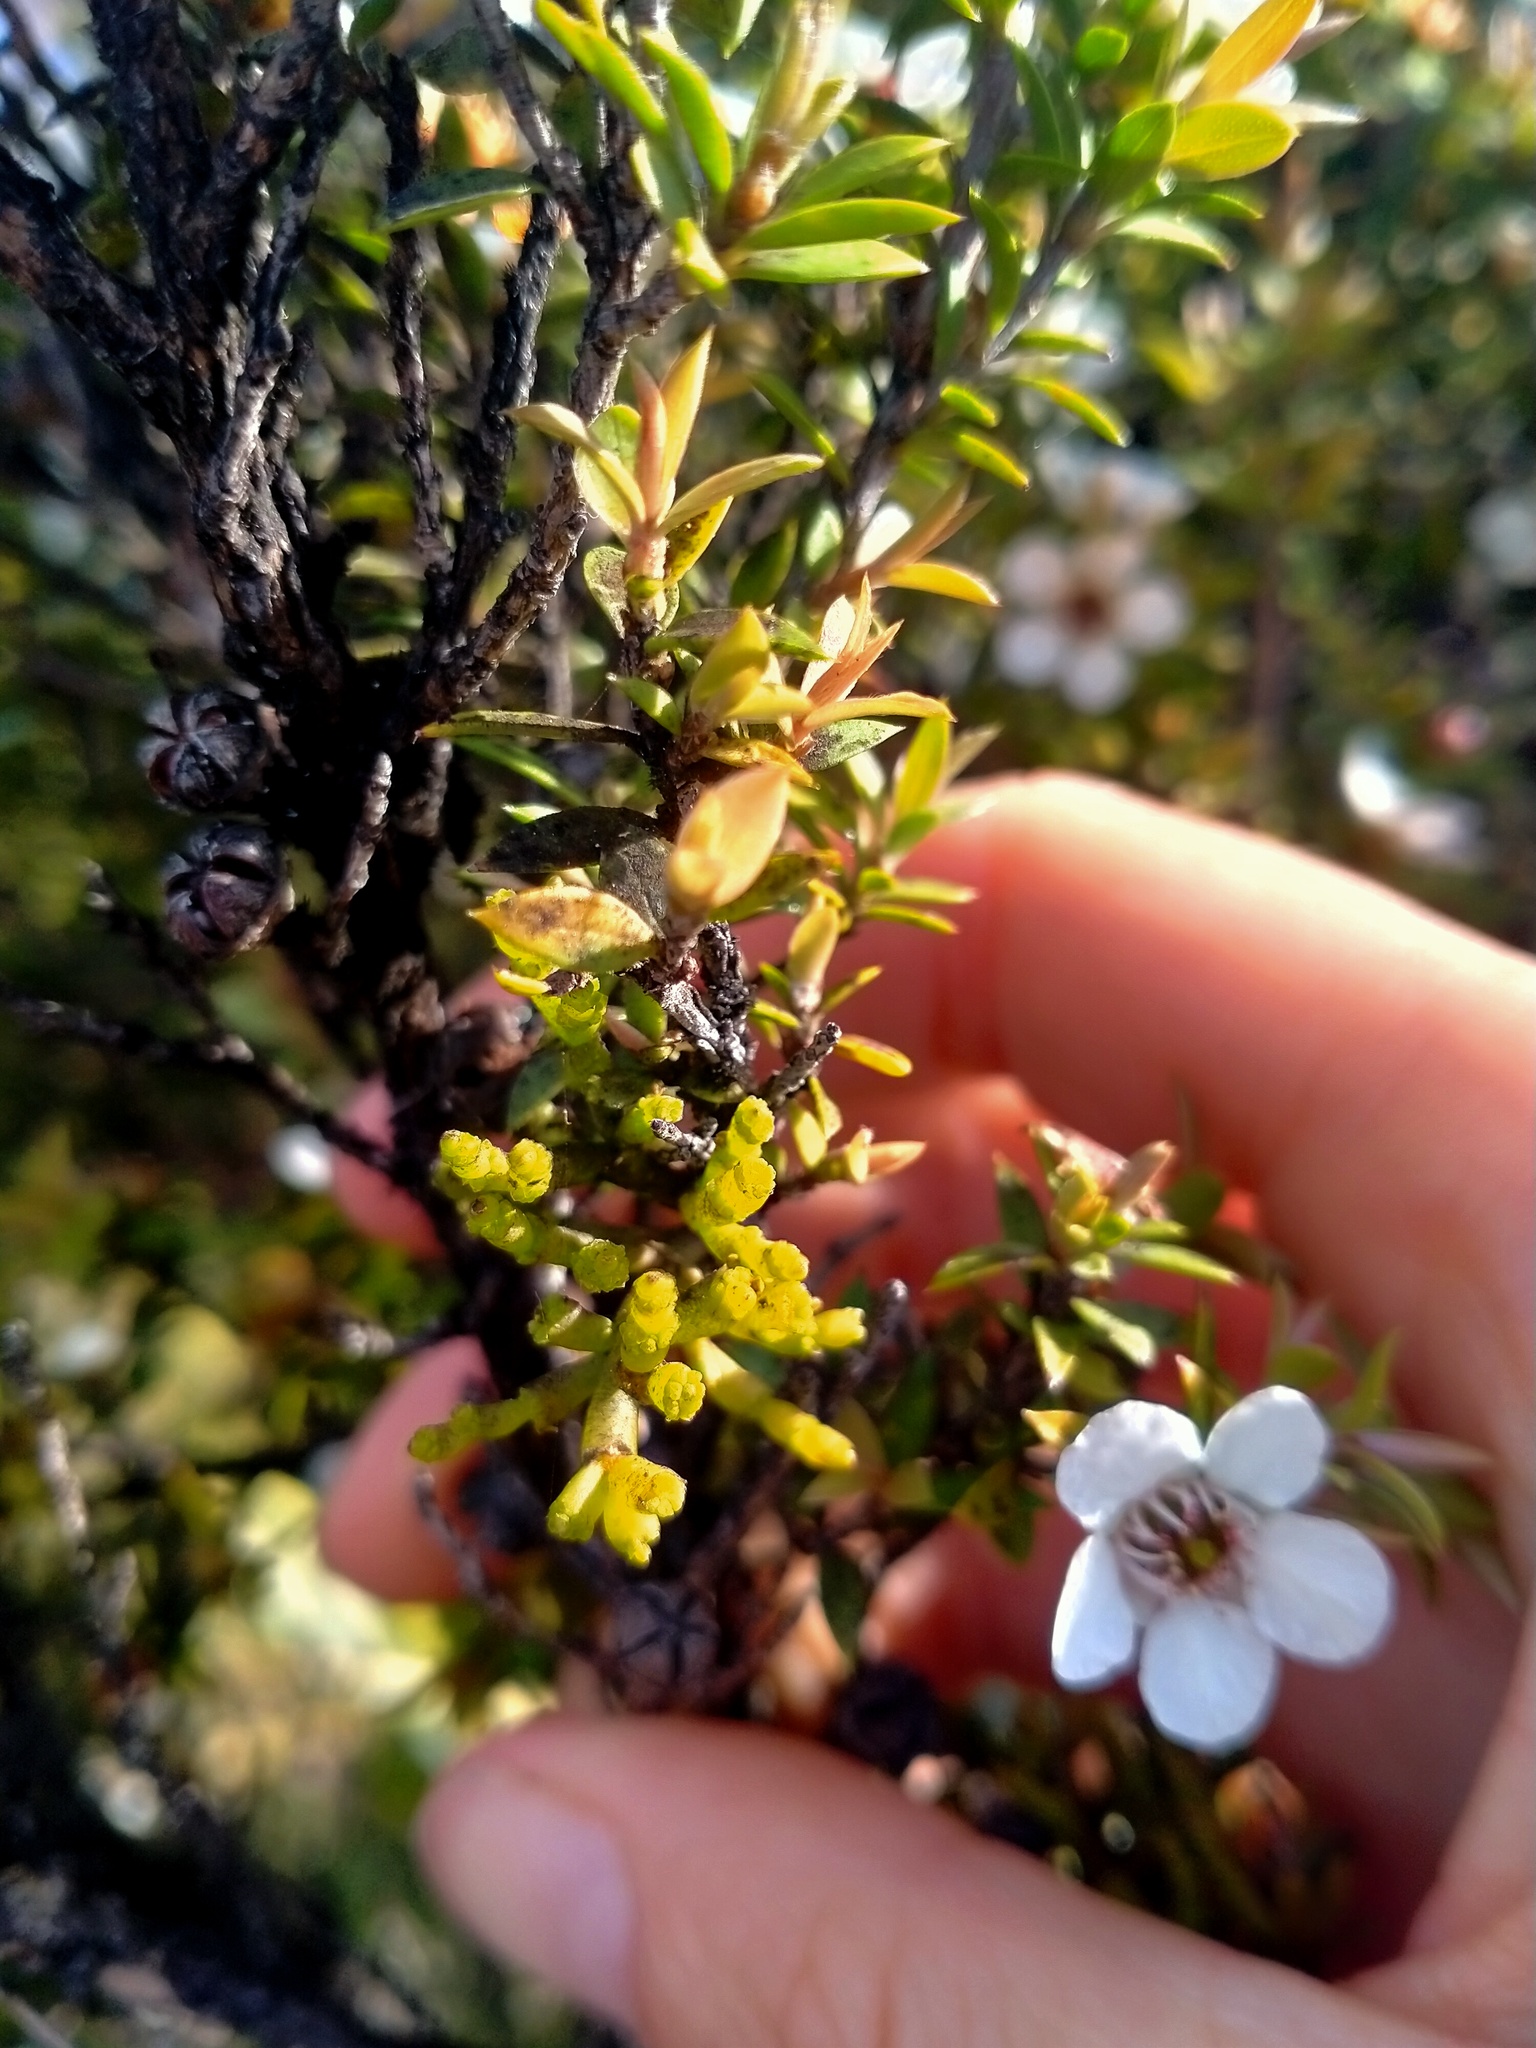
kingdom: Plantae
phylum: Tracheophyta
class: Magnoliopsida
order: Santalales
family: Viscaceae
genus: Korthalsella
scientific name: Korthalsella salicornioides
